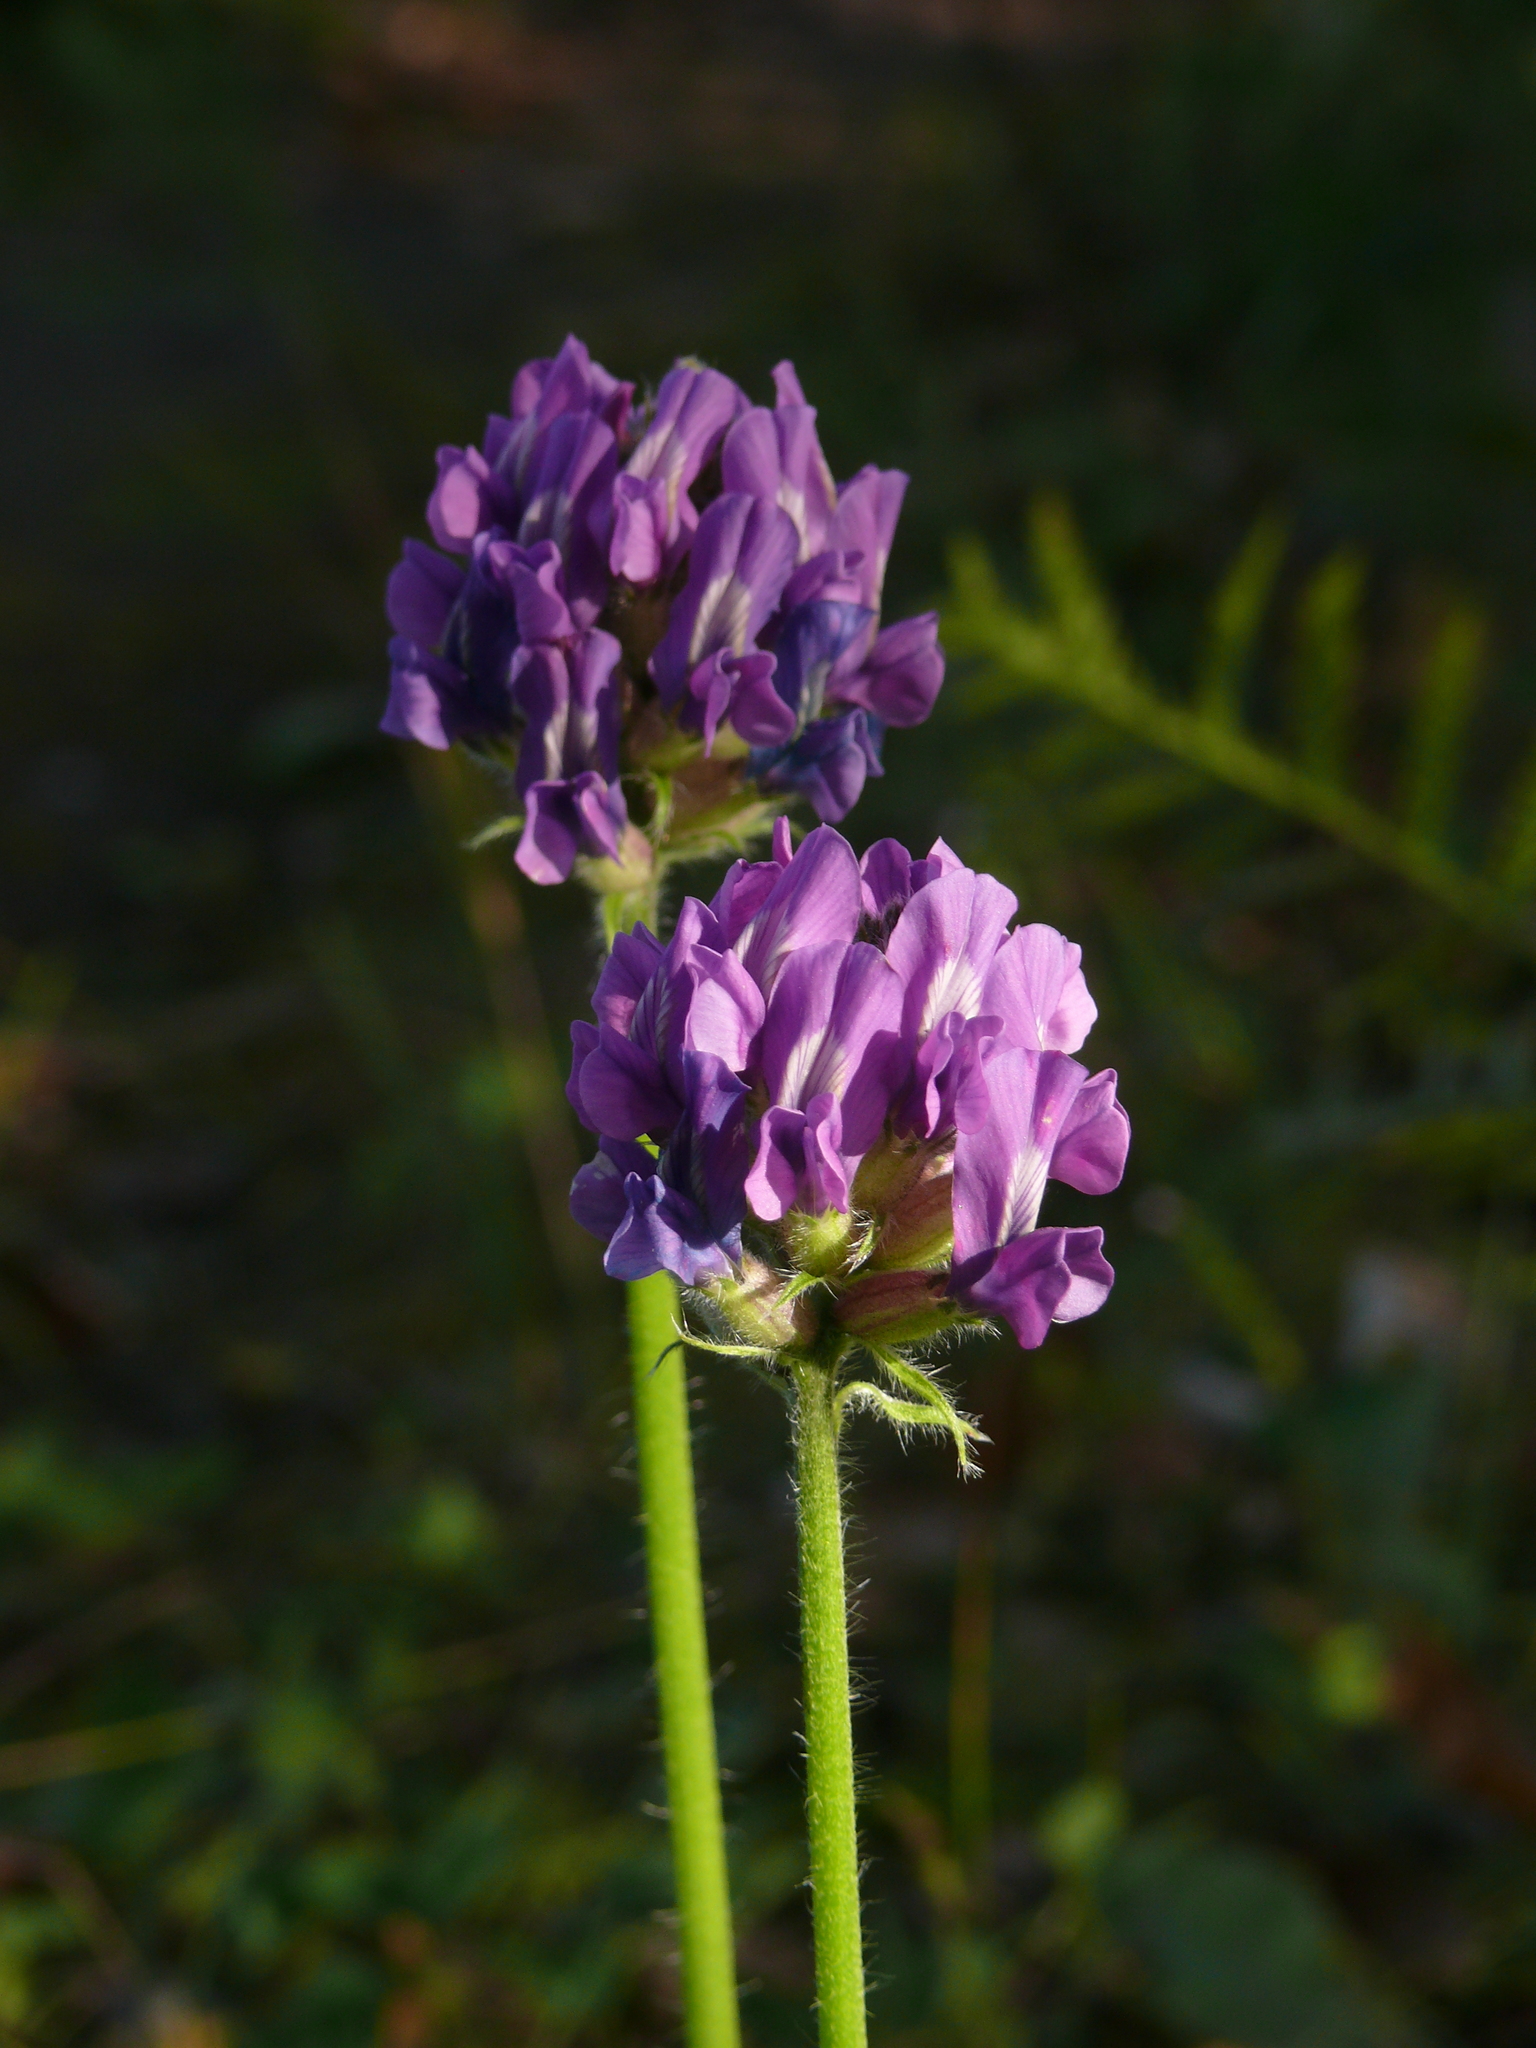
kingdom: Plantae
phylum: Tracheophyta
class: Magnoliopsida
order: Fabales
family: Fabaceae
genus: Oxytropis
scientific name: Oxytropis strobilacea
